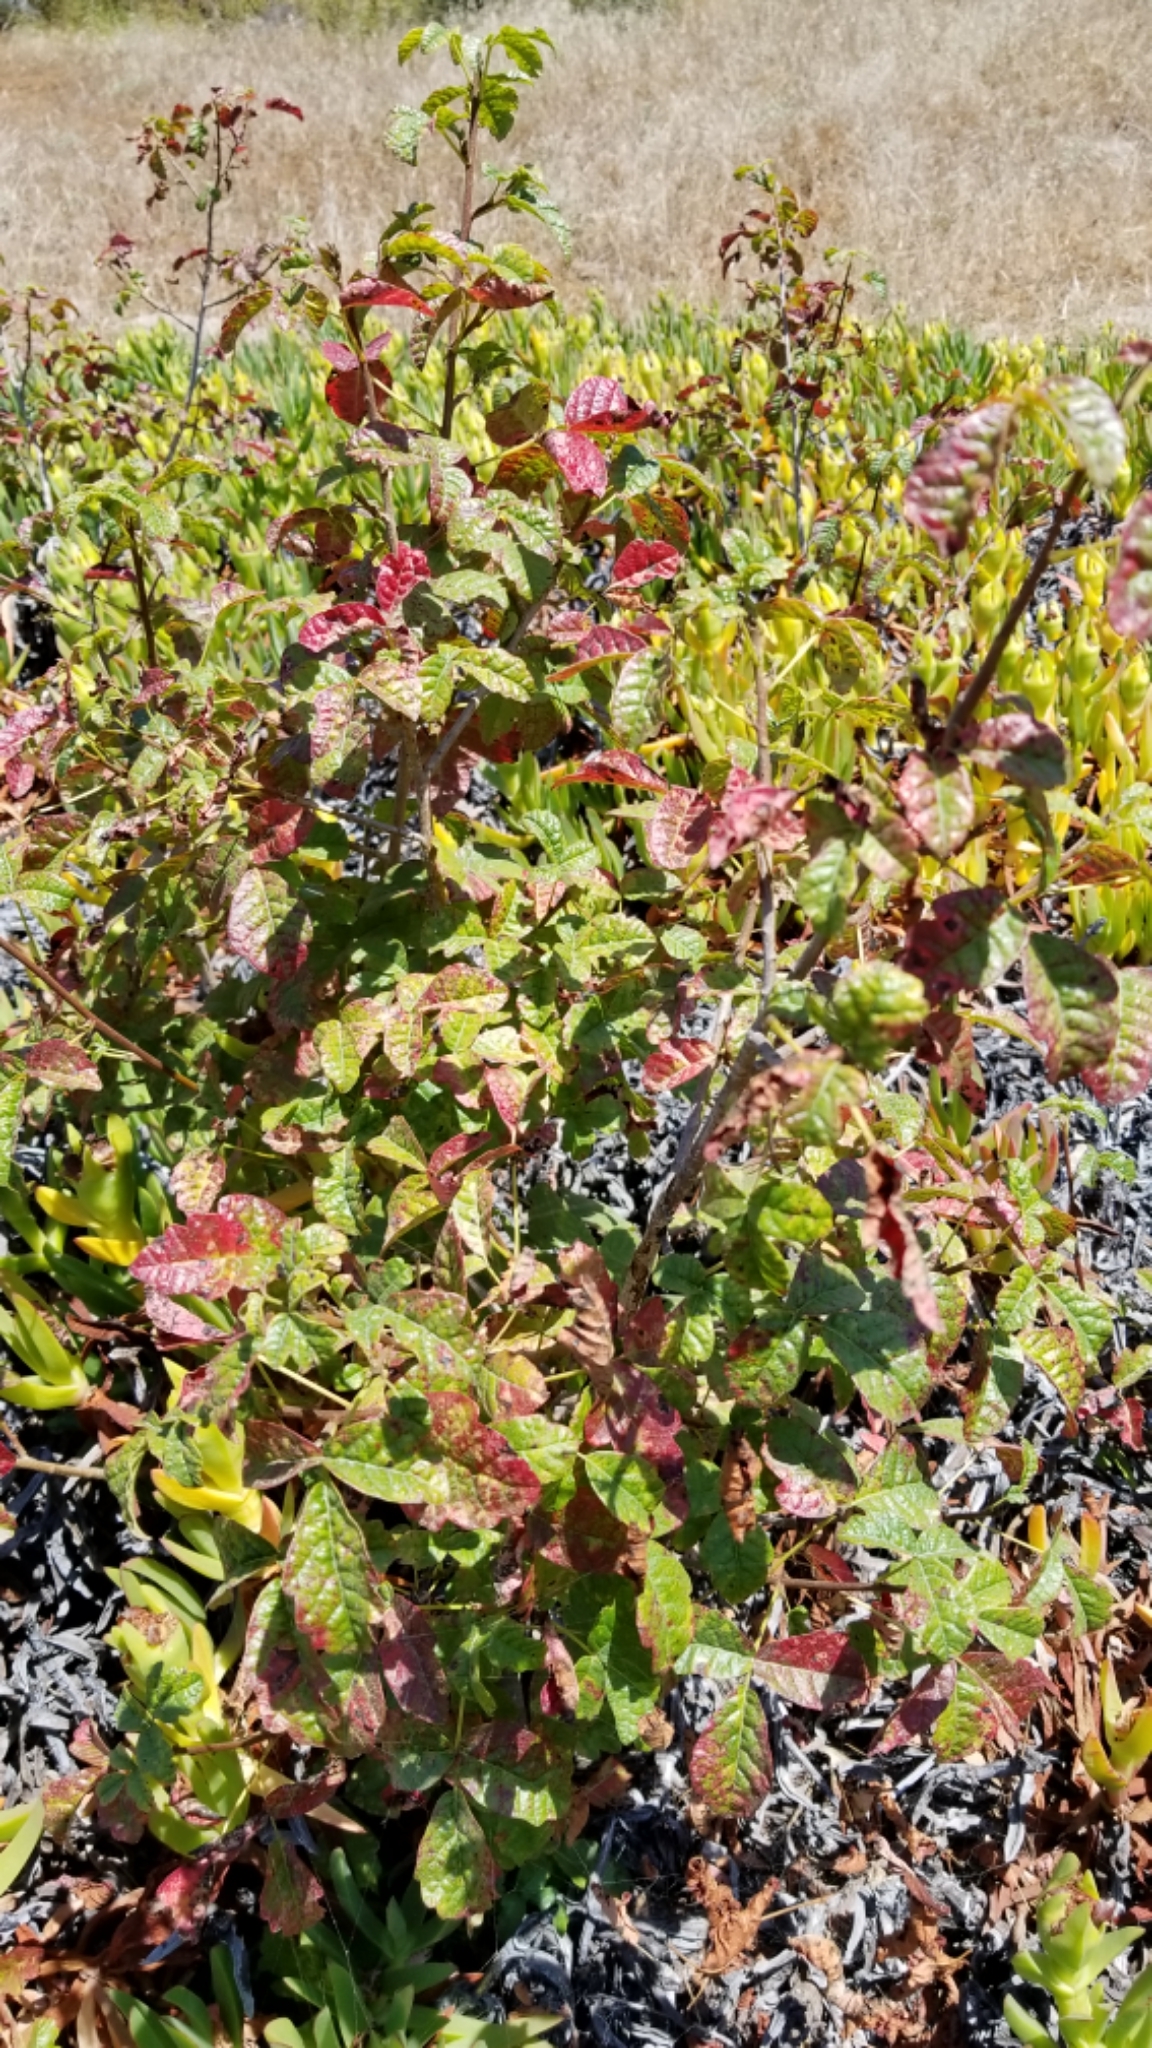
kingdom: Plantae
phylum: Tracheophyta
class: Magnoliopsida
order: Sapindales
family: Anacardiaceae
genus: Toxicodendron
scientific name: Toxicodendron diversilobum
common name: Pacific poison-oak
